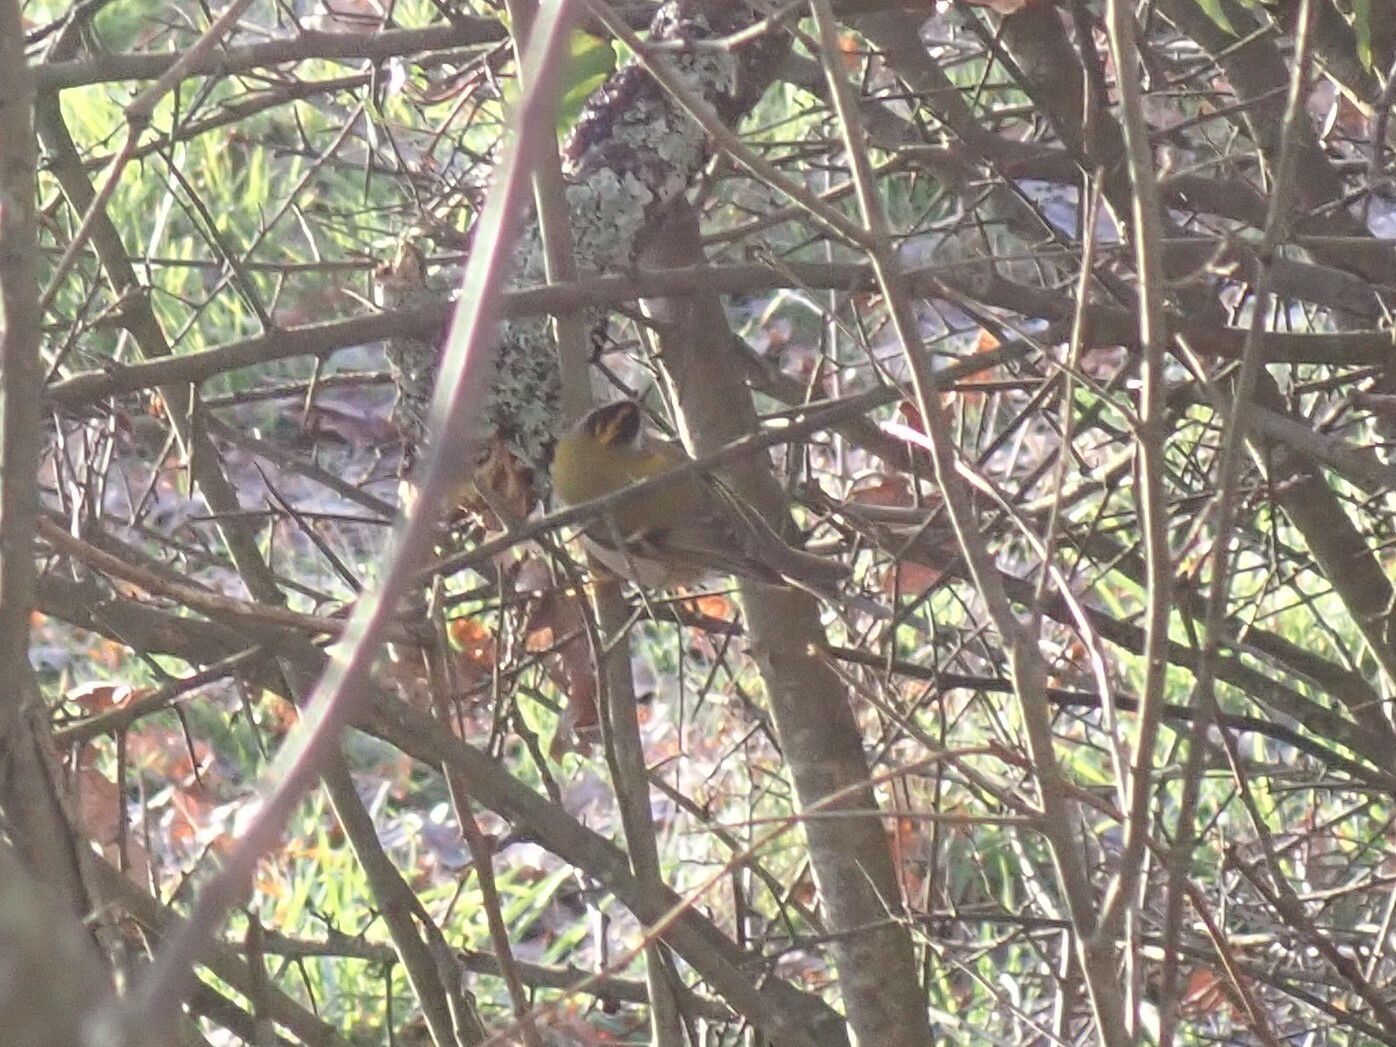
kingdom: Animalia
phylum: Chordata
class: Aves
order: Passeriformes
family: Regulidae
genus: Regulus
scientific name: Regulus ignicapilla
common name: Firecrest
